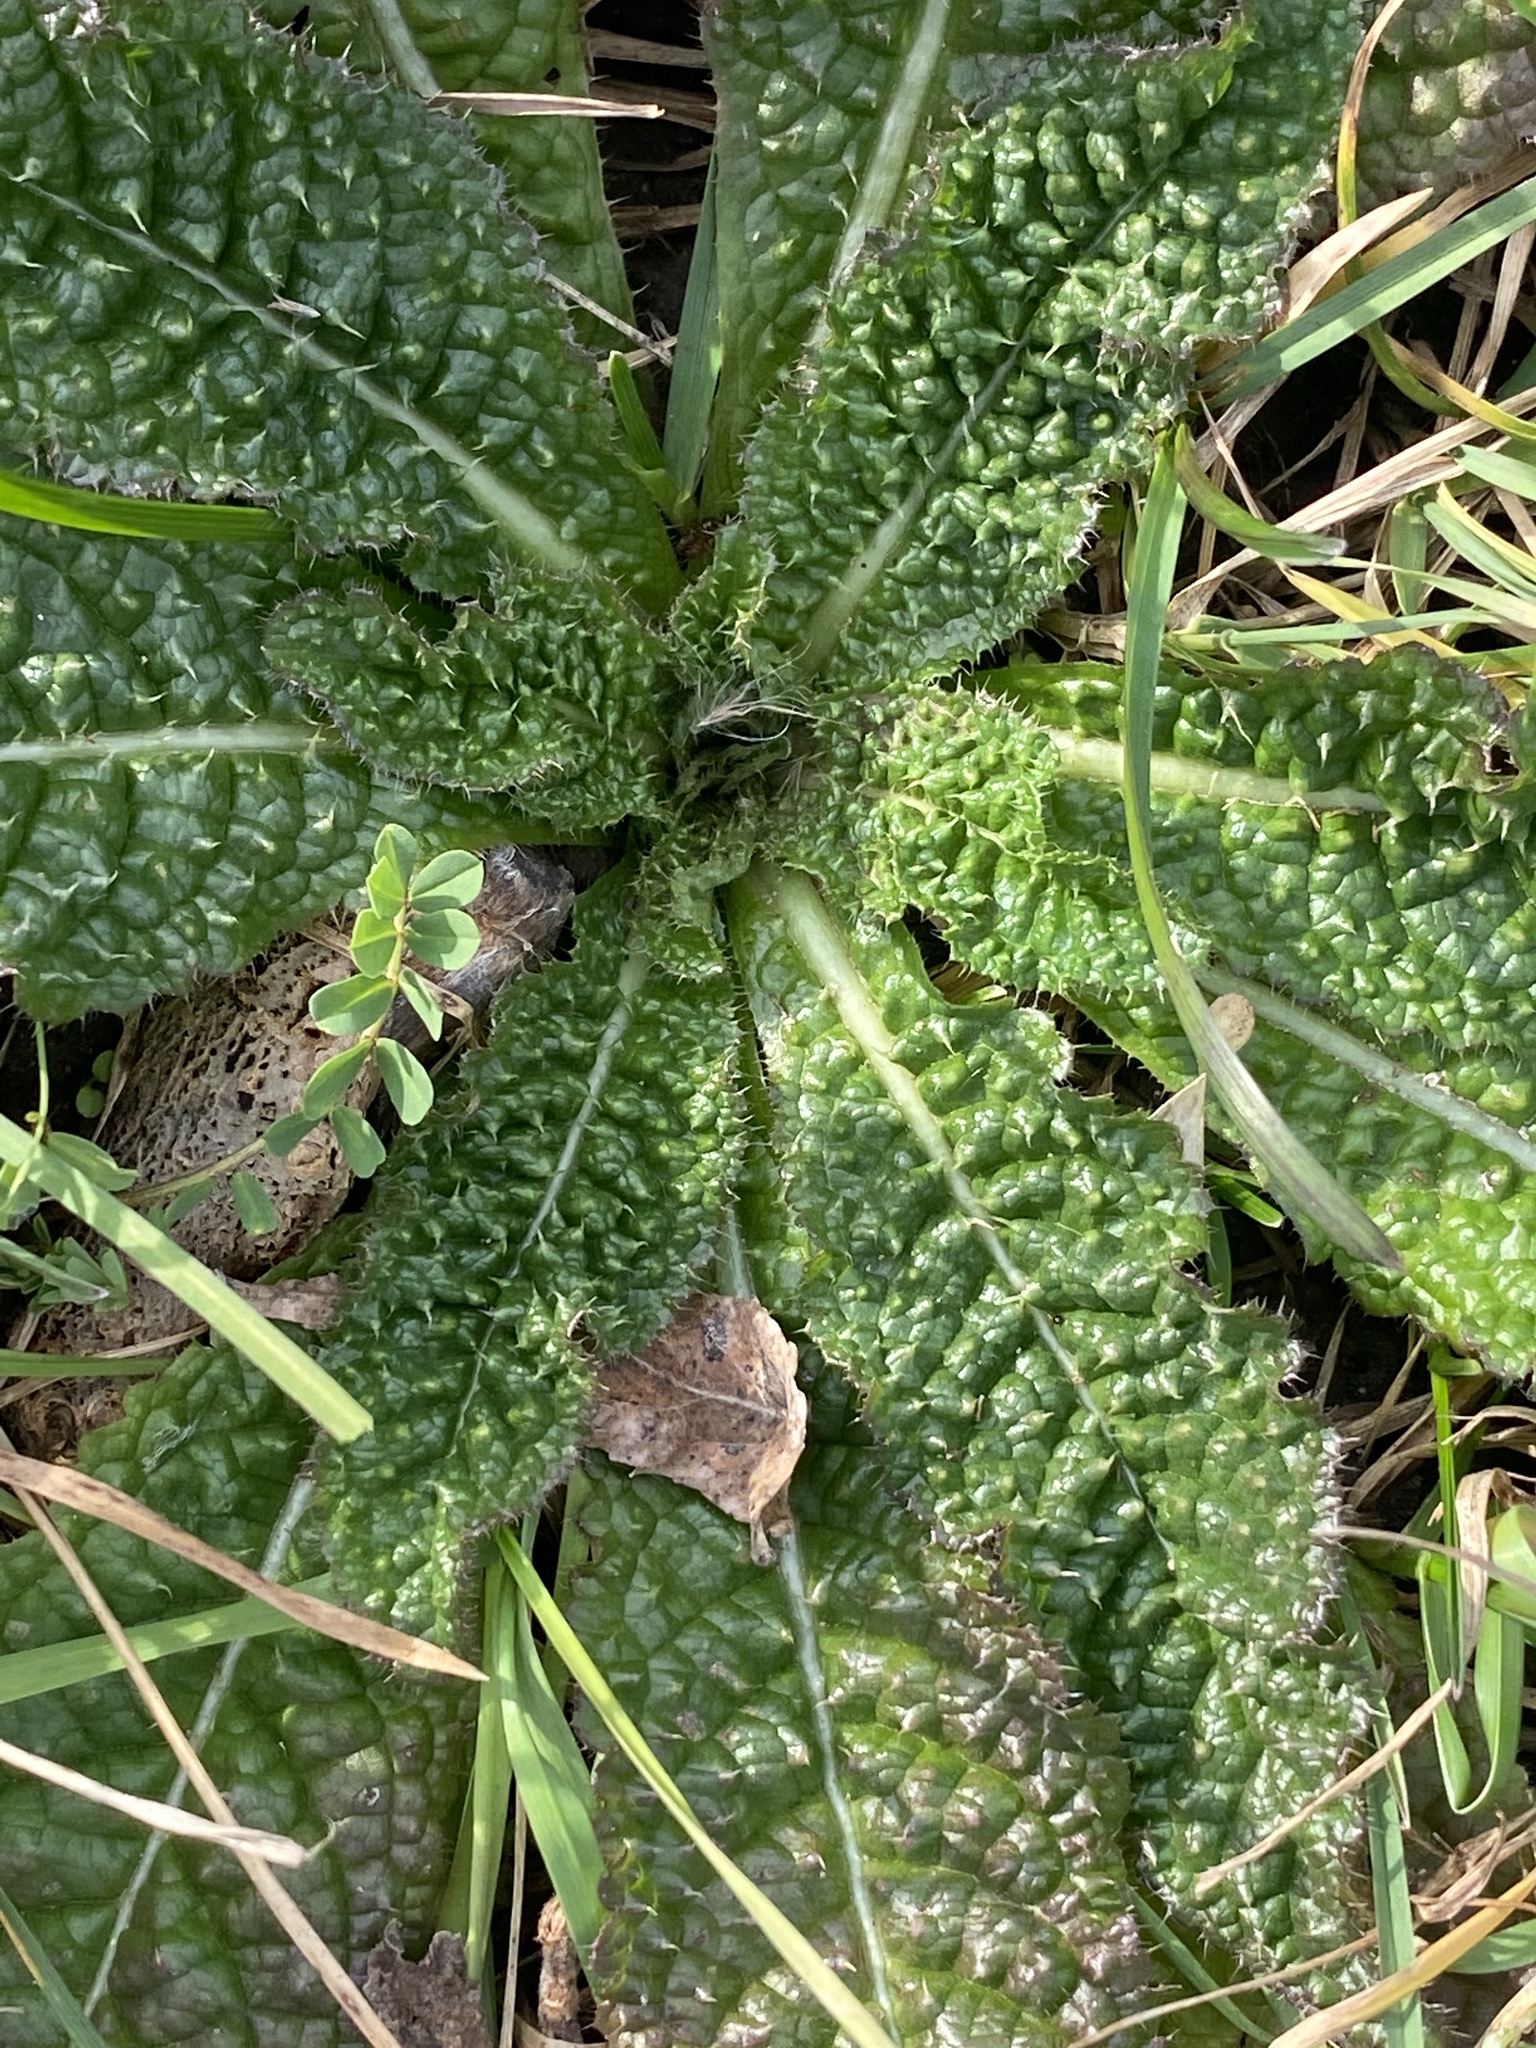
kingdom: Plantae
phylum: Tracheophyta
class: Magnoliopsida
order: Dipsacales
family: Caprifoliaceae
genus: Dipsacus
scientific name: Dipsacus fullonum
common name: Teasel
